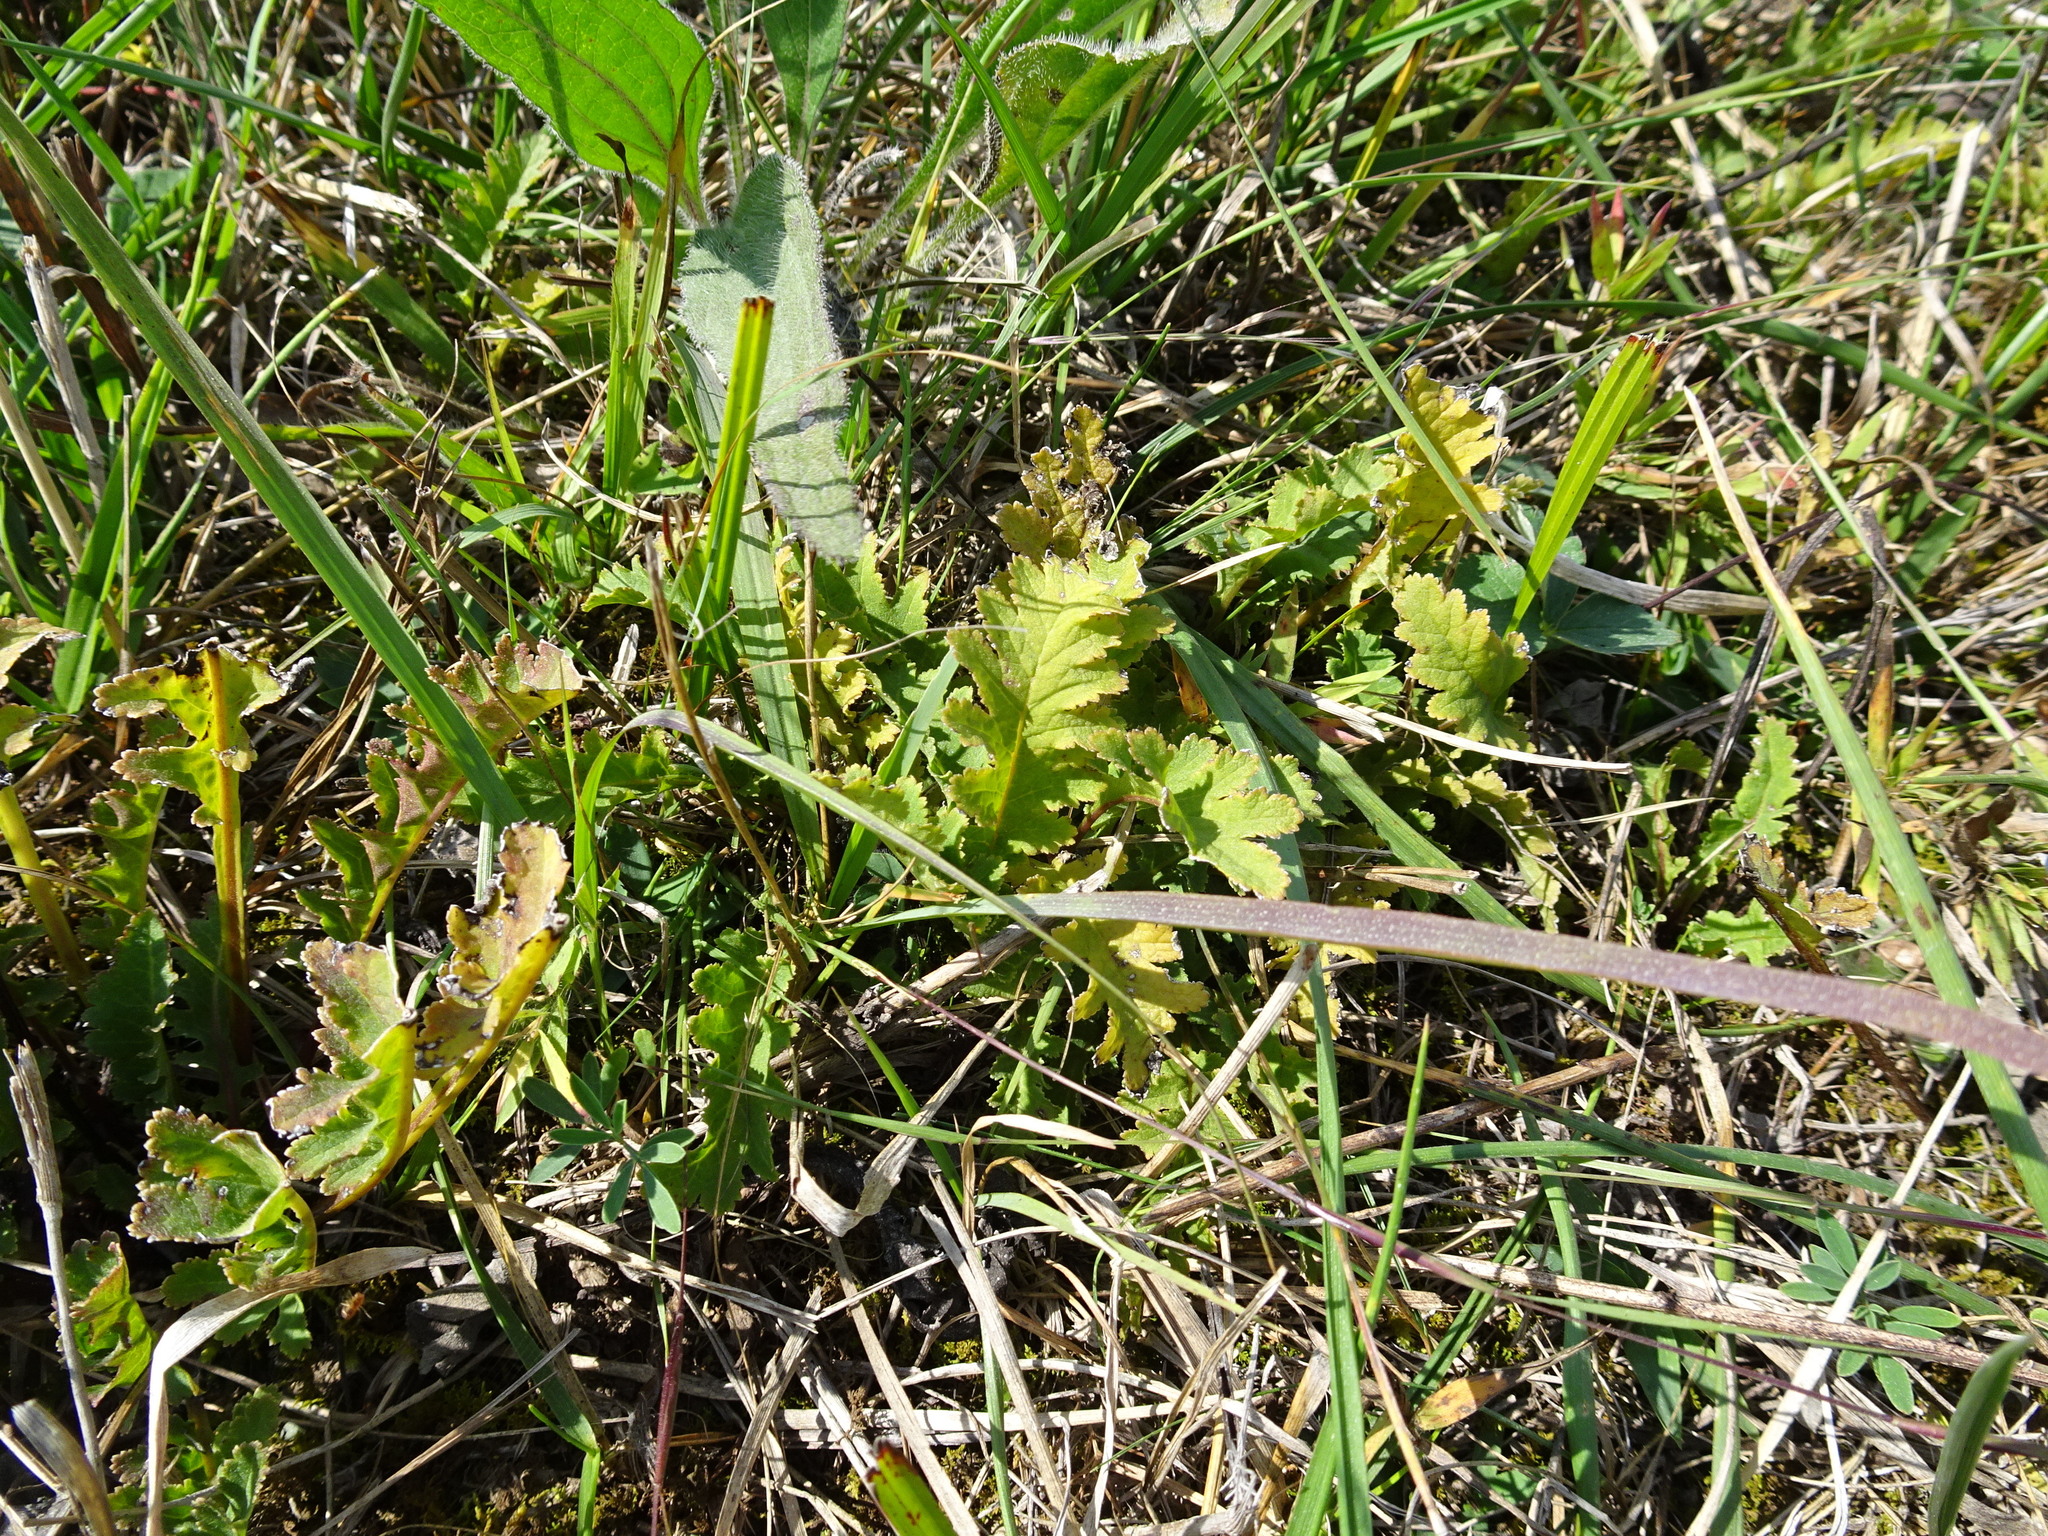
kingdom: Plantae
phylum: Tracheophyta
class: Magnoliopsida
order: Lamiales
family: Orobanchaceae
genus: Pedicularis
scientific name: Pedicularis canadensis
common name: Early lousewort
